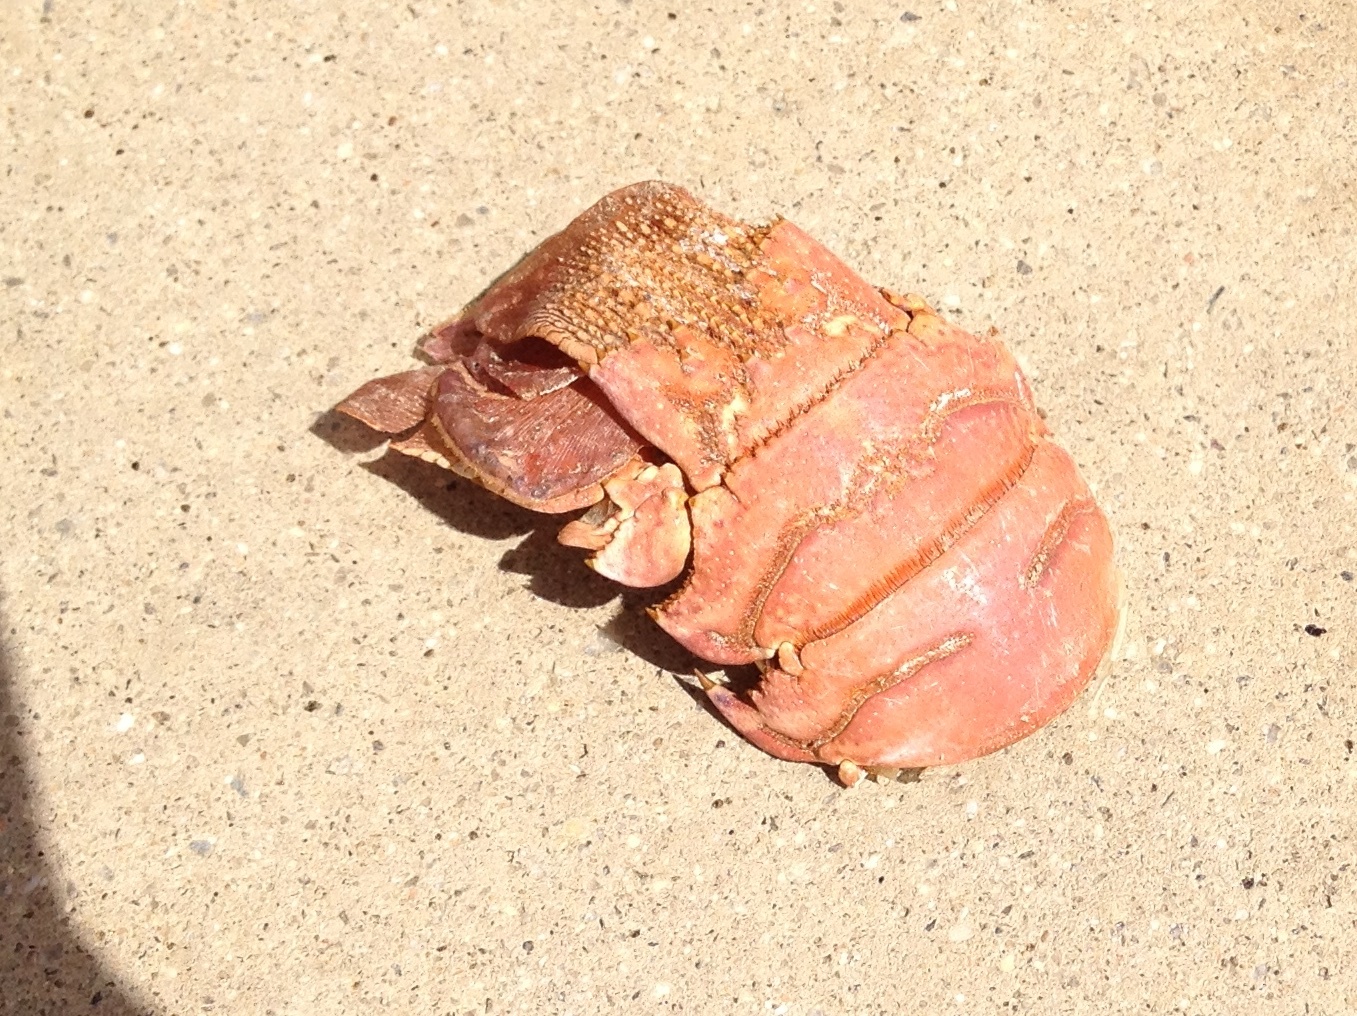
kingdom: Animalia
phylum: Arthropoda
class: Malacostraca
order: Decapoda
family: Palinuridae
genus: Panulirus
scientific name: Panulirus interruptus
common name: California spiny lobster
